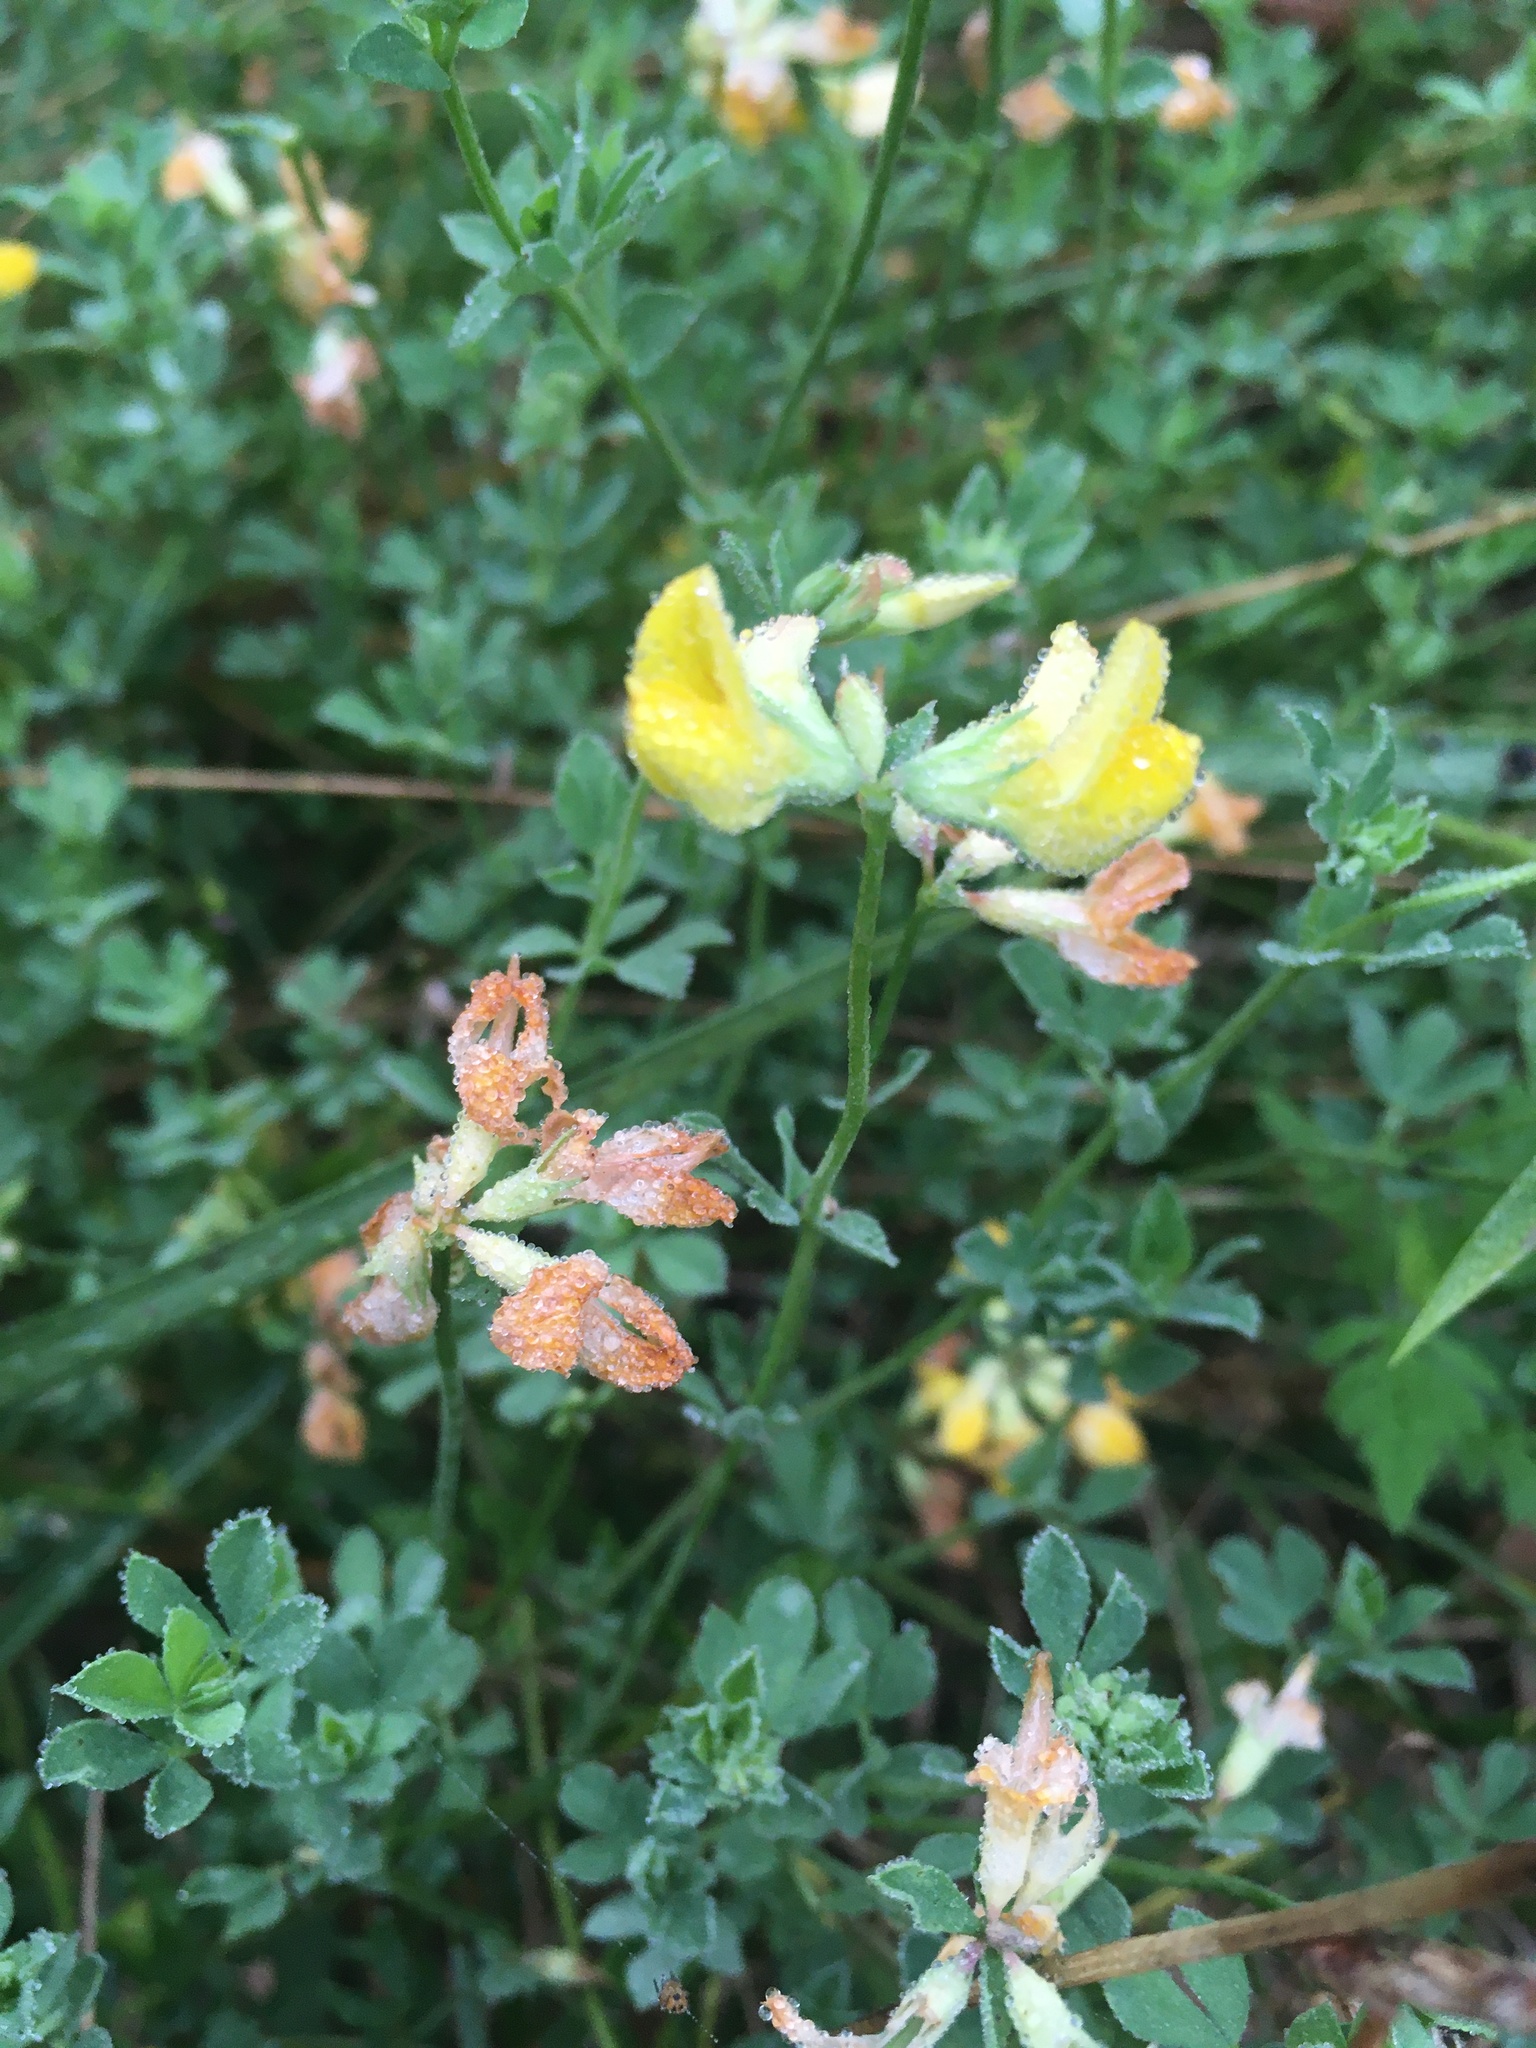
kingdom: Plantae
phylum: Tracheophyta
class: Magnoliopsida
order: Fabales
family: Fabaceae
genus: Lotus
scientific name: Lotus corniculatus
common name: Common bird's-foot-trefoil
